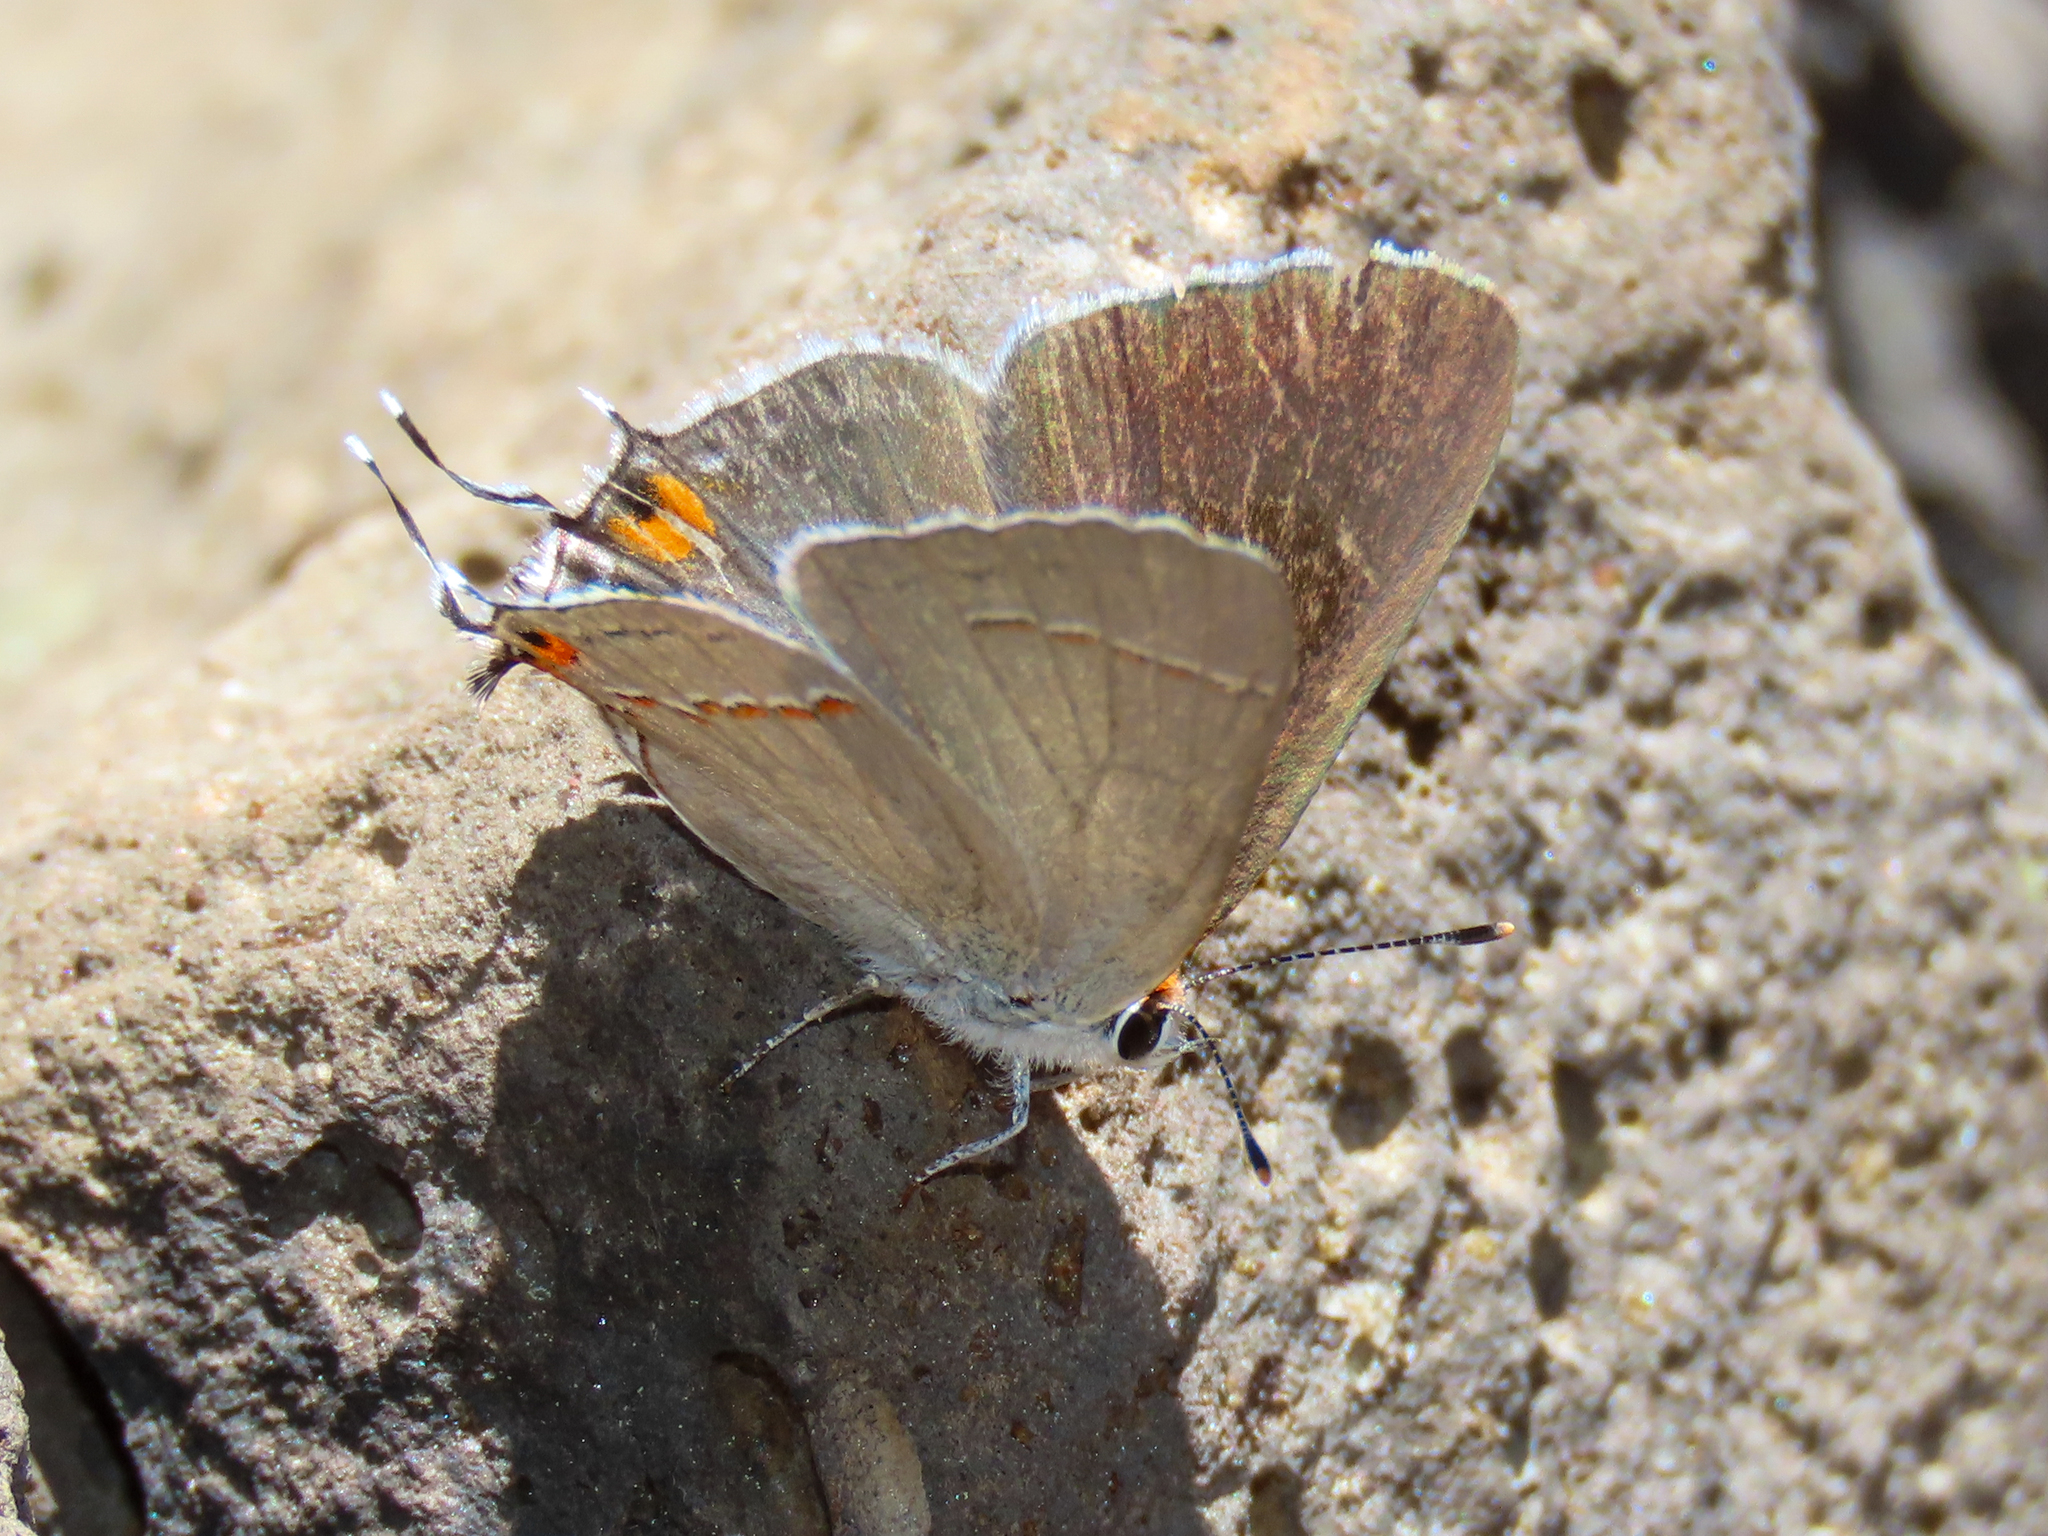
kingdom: Animalia
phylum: Arthropoda
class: Insecta
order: Lepidoptera
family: Lycaenidae
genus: Strymon
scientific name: Strymon melinus
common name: Gray hairstreak
